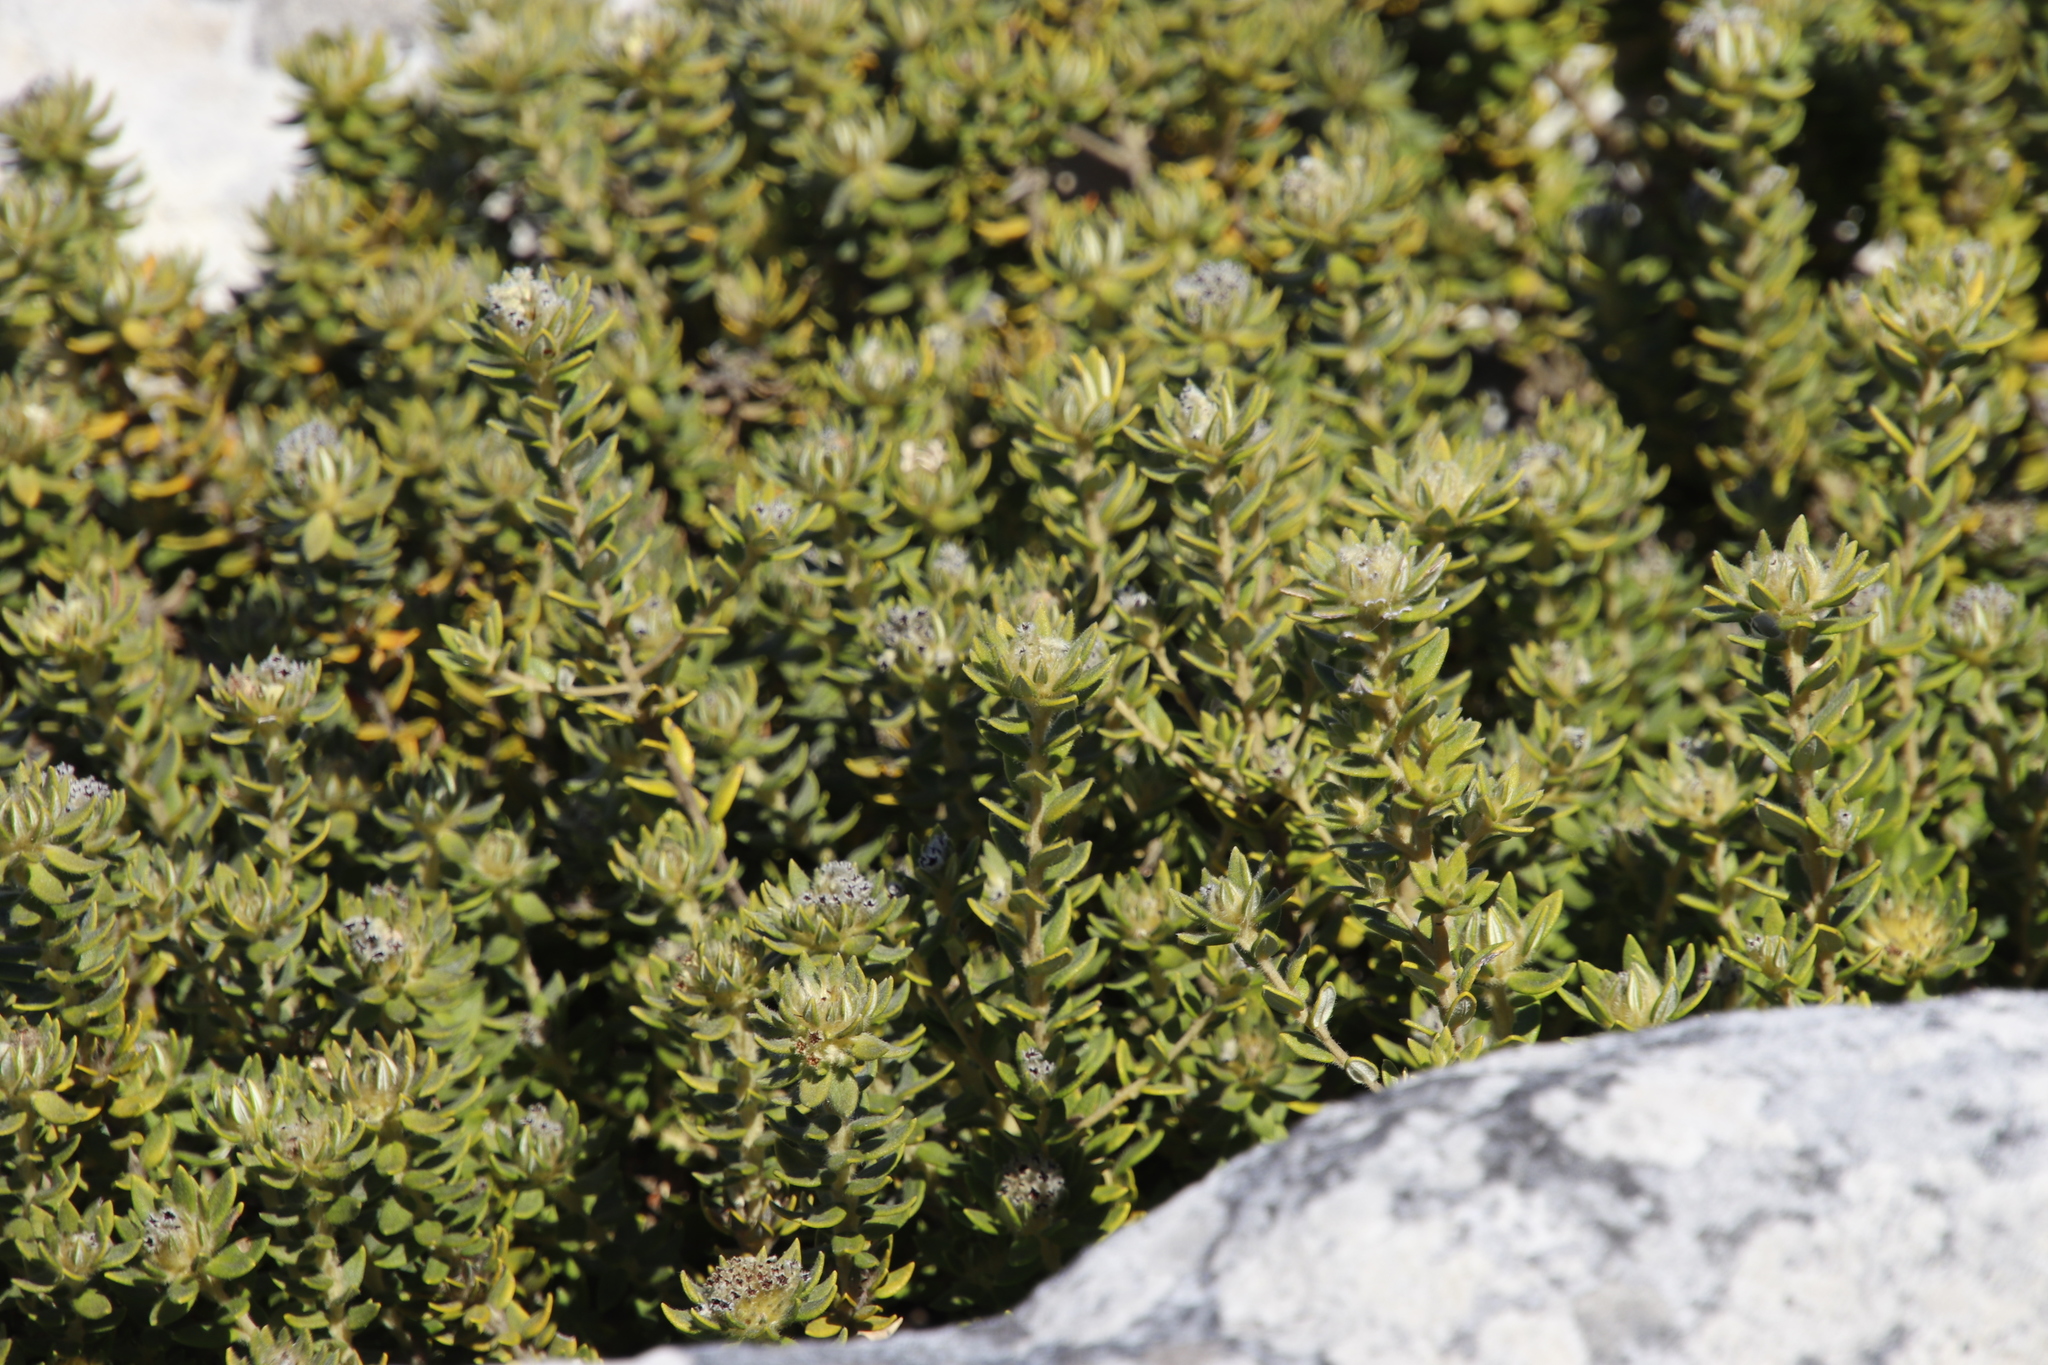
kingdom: Plantae
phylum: Tracheophyta
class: Magnoliopsida
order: Rosales
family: Rhamnaceae
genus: Phylica
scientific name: Phylica dioica
